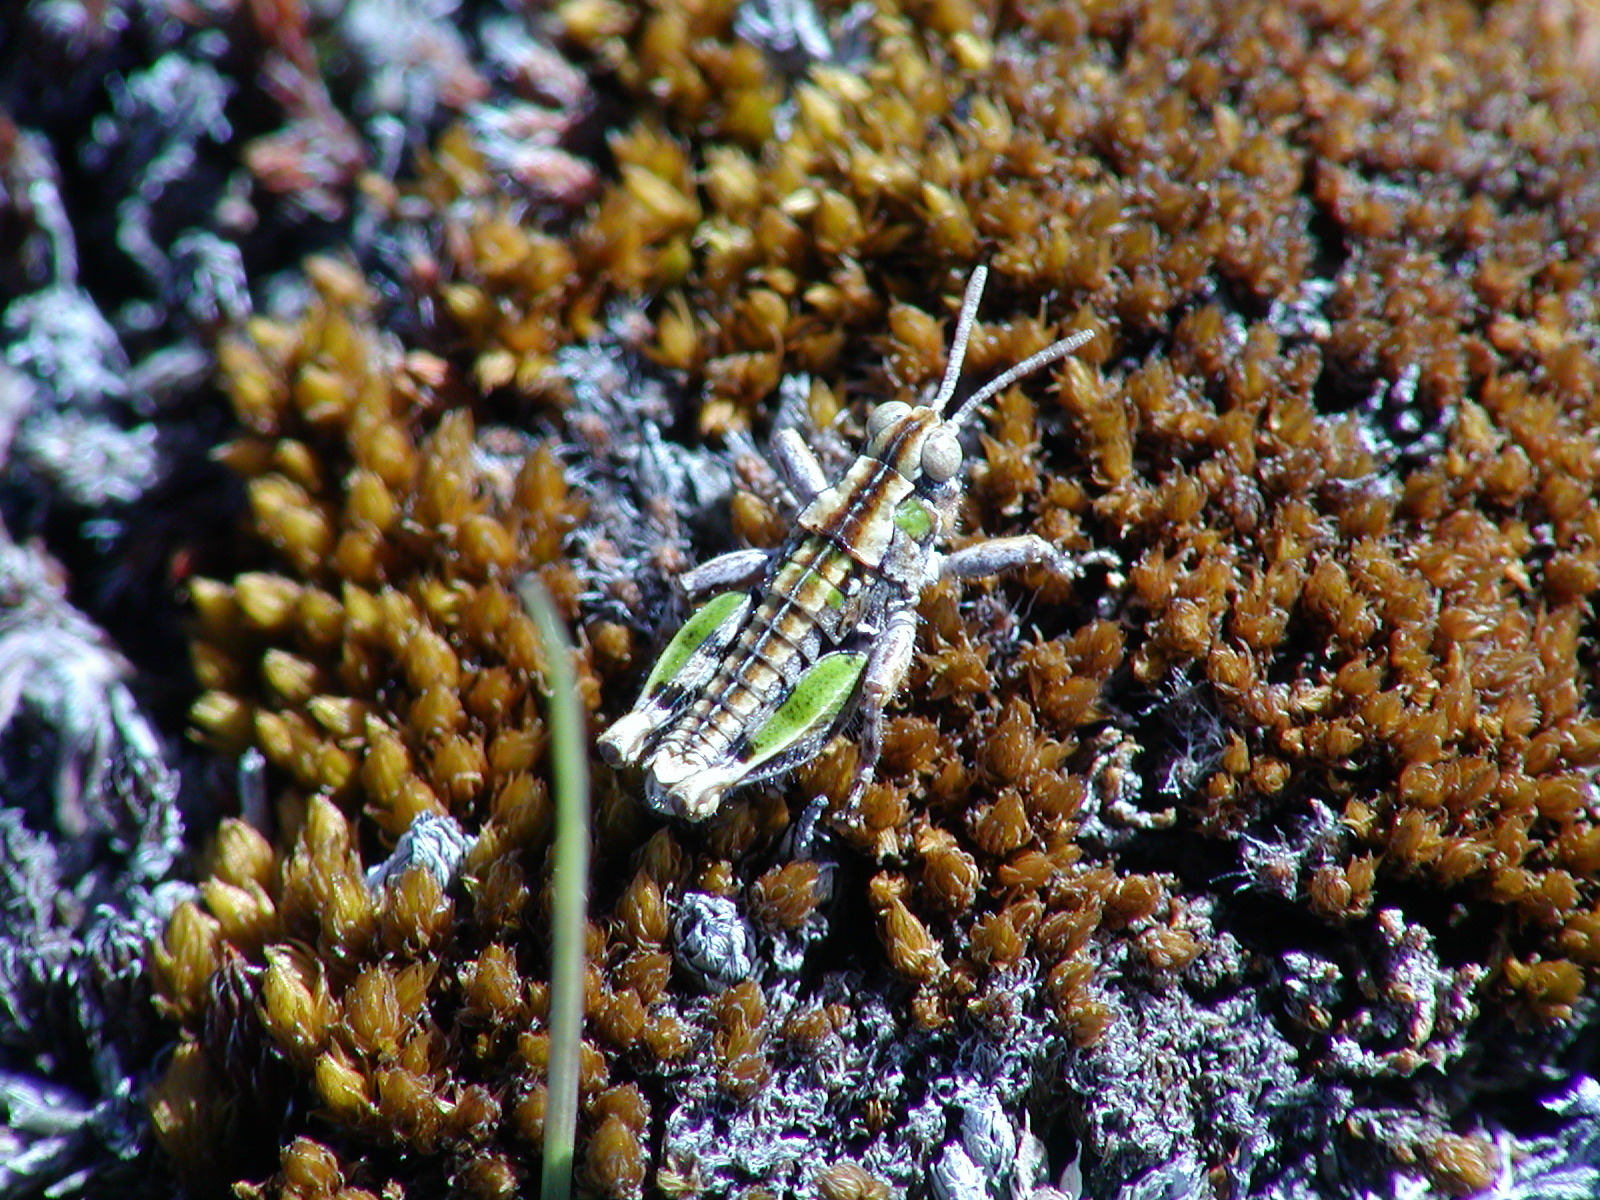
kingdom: Animalia
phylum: Arthropoda
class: Insecta
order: Orthoptera
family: Acrididae
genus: Sigaus
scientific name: Sigaus minutus
